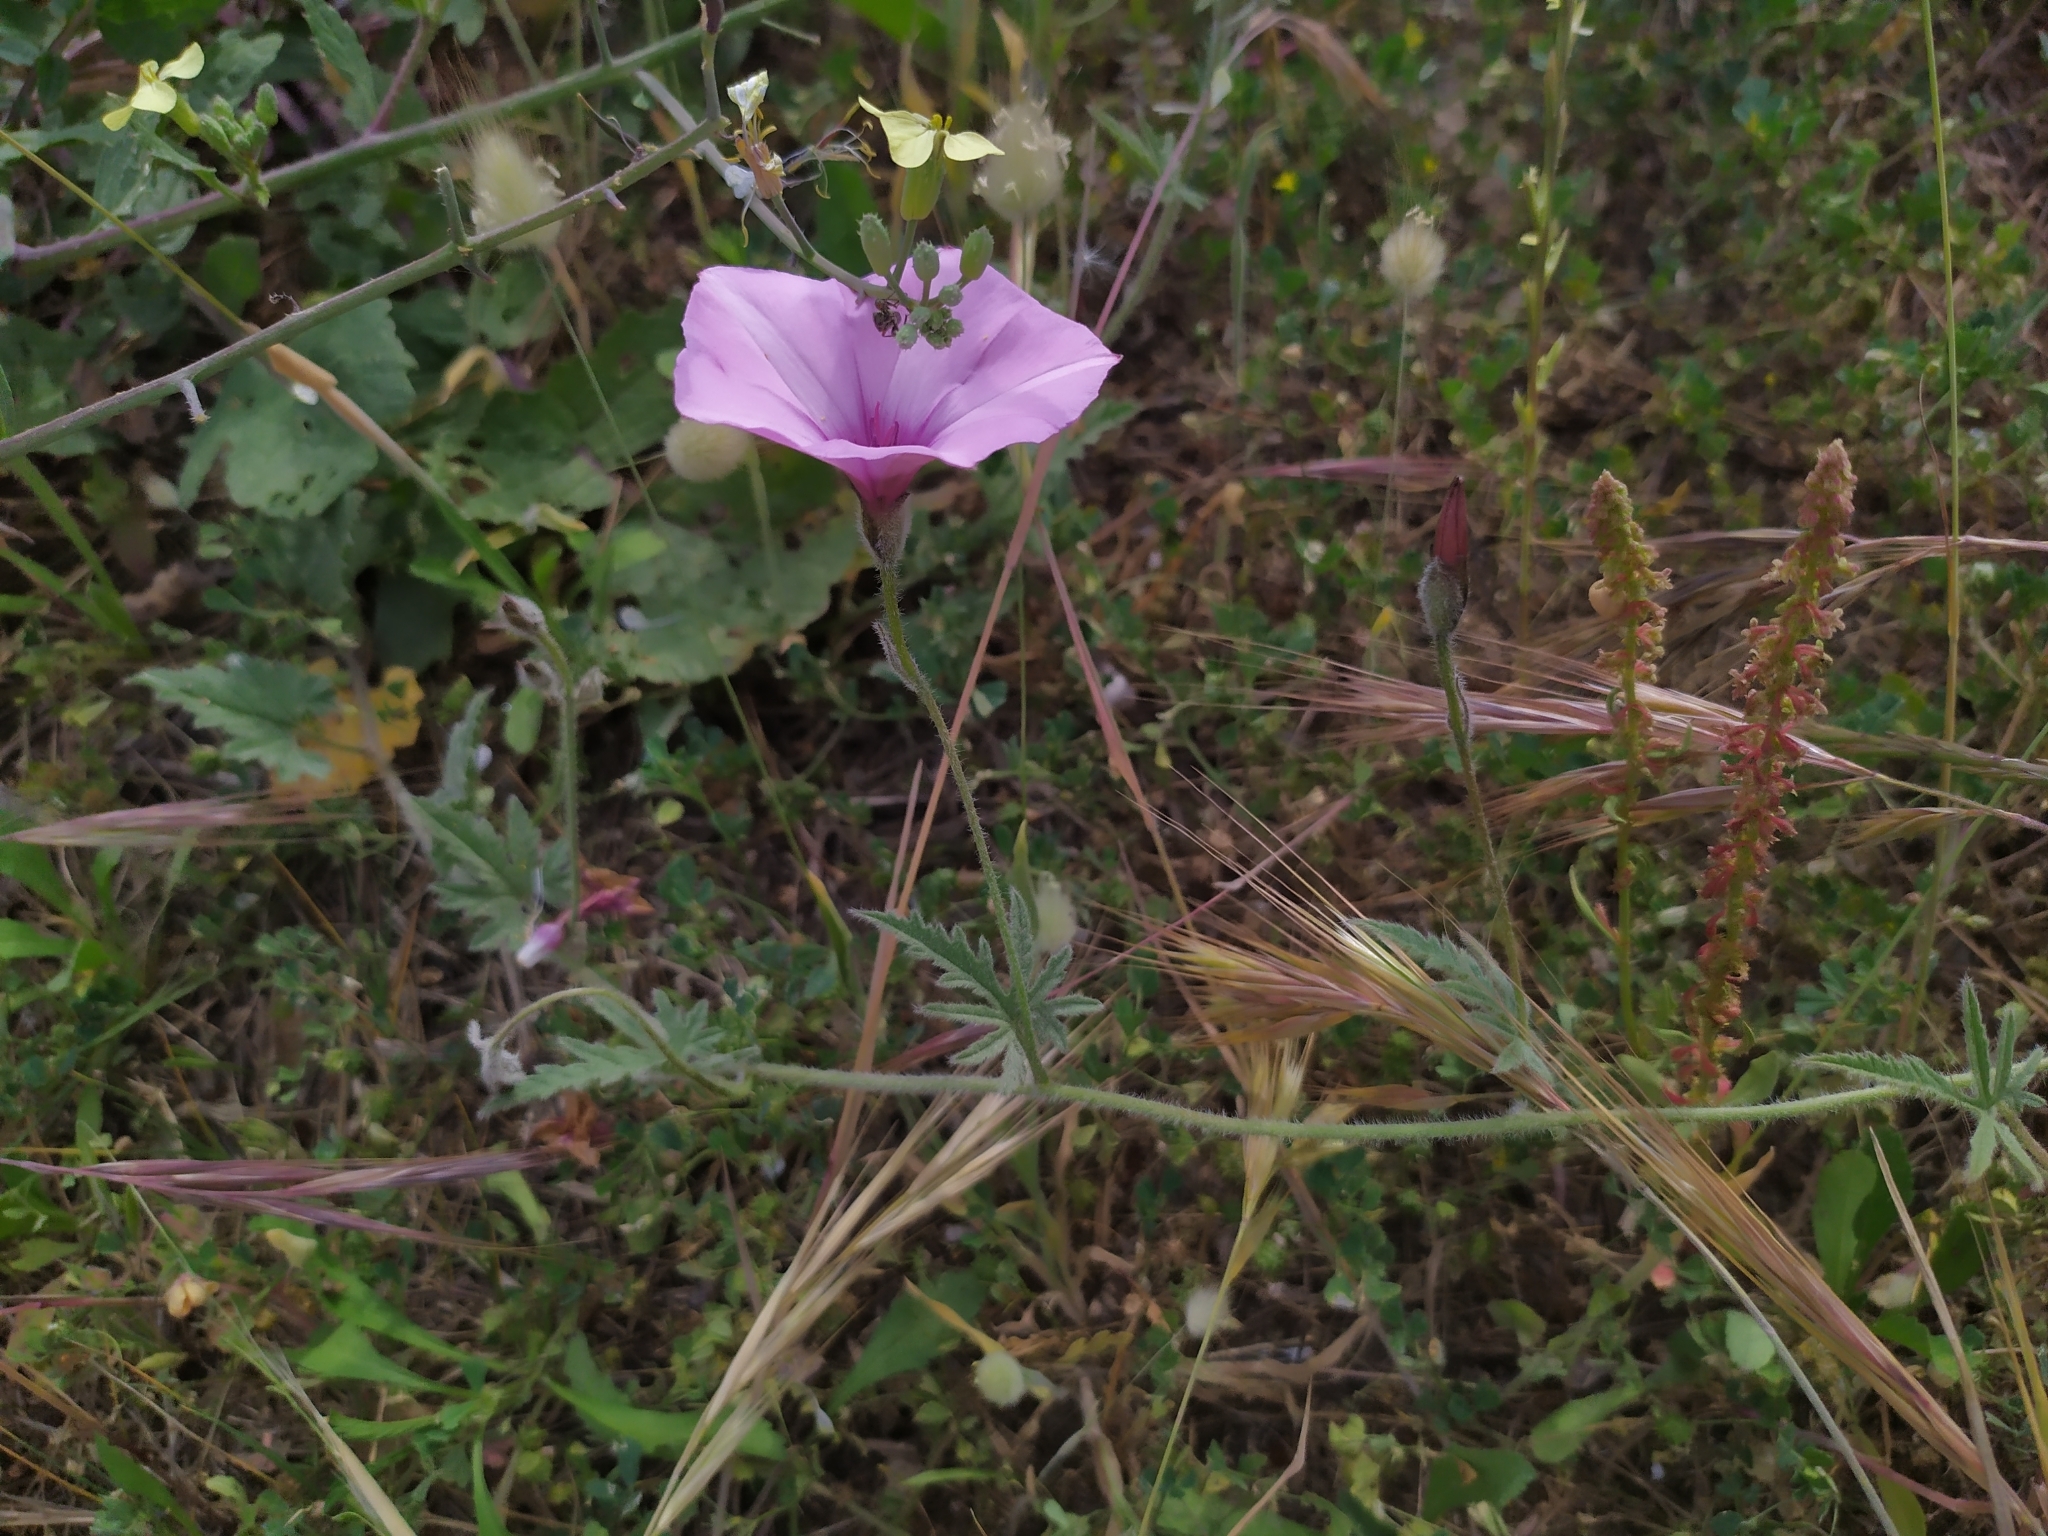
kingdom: Plantae
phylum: Tracheophyta
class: Magnoliopsida
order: Solanales
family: Convolvulaceae
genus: Convolvulus
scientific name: Convolvulus althaeoides
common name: Mallow bindweed
